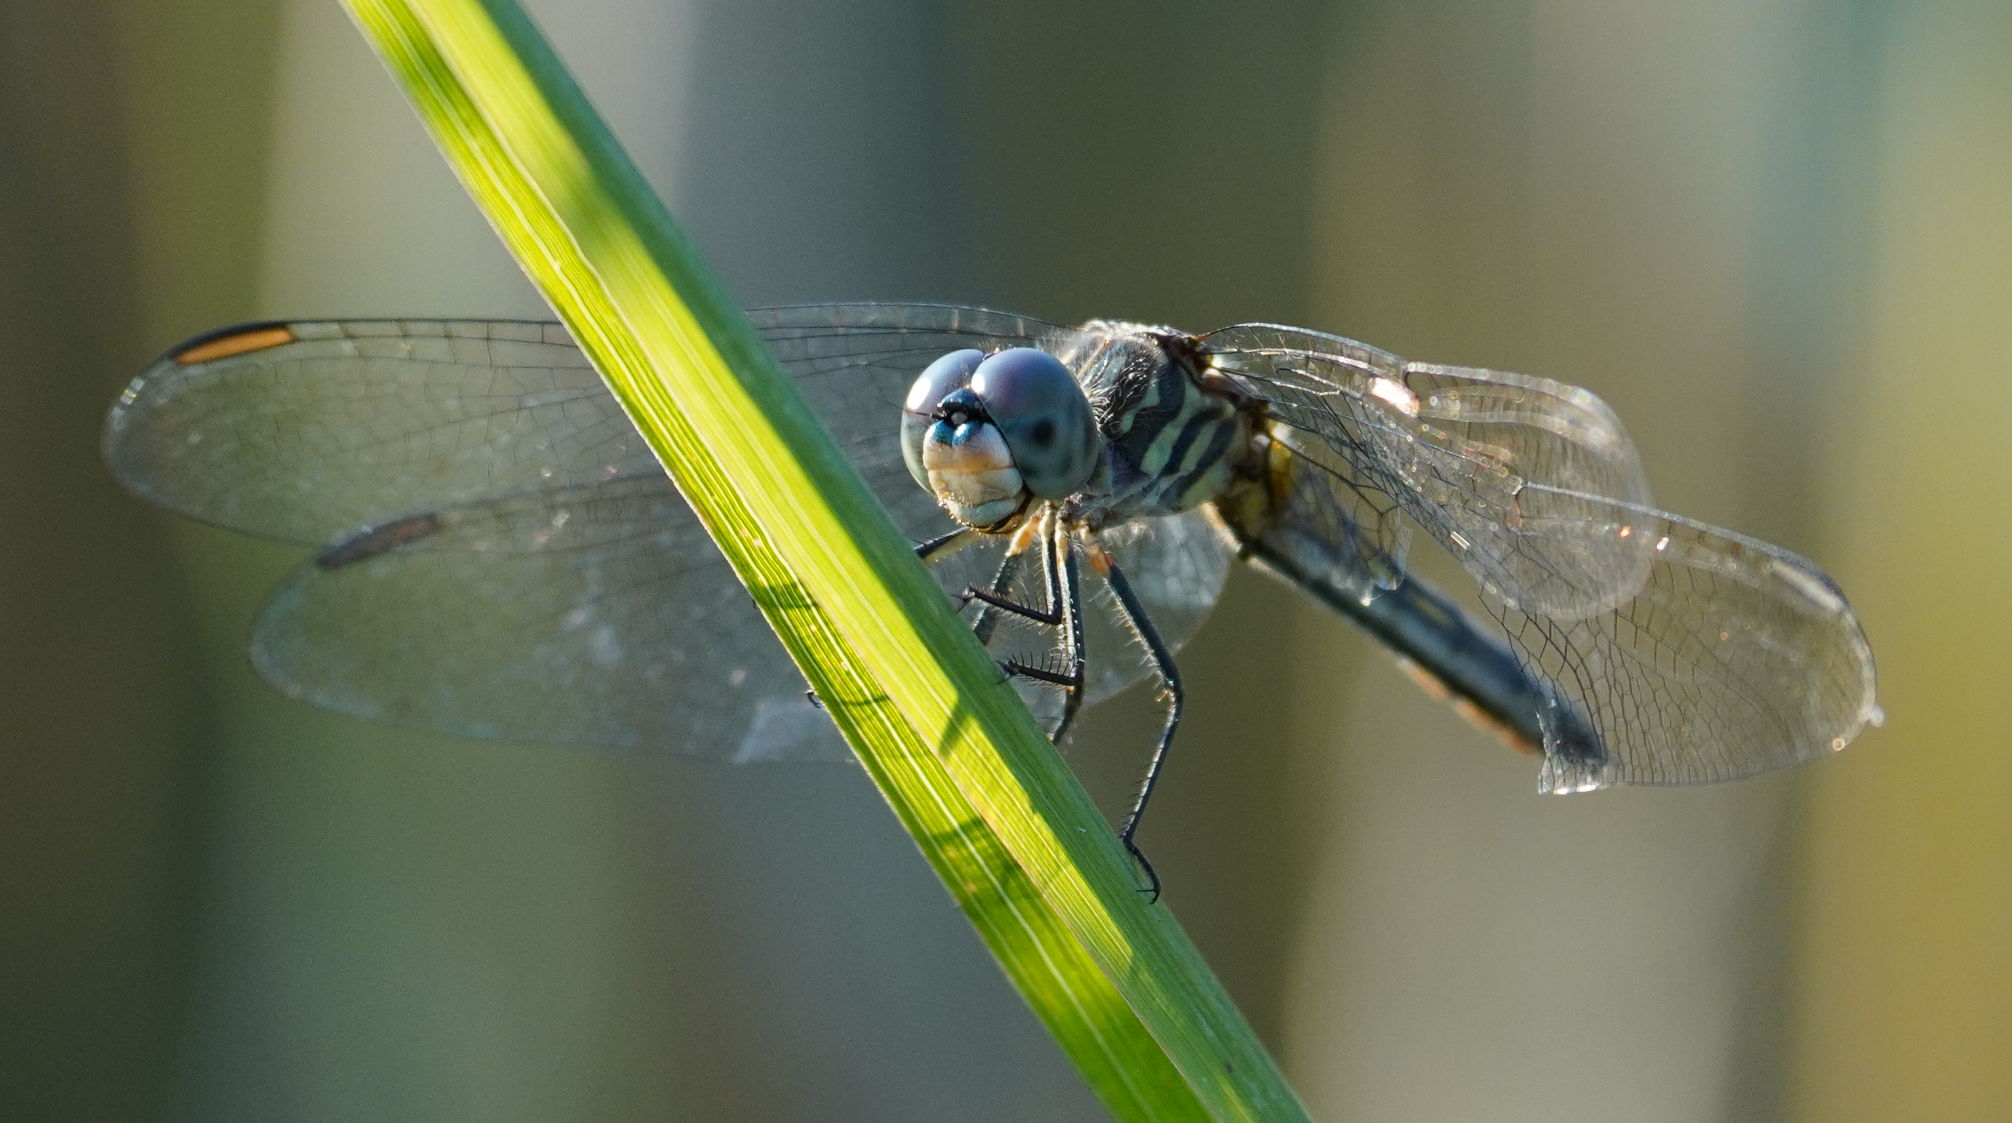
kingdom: Animalia
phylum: Arthropoda
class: Insecta
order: Odonata
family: Libellulidae
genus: Pachydiplax
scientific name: Pachydiplax longipennis
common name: Blue dasher
